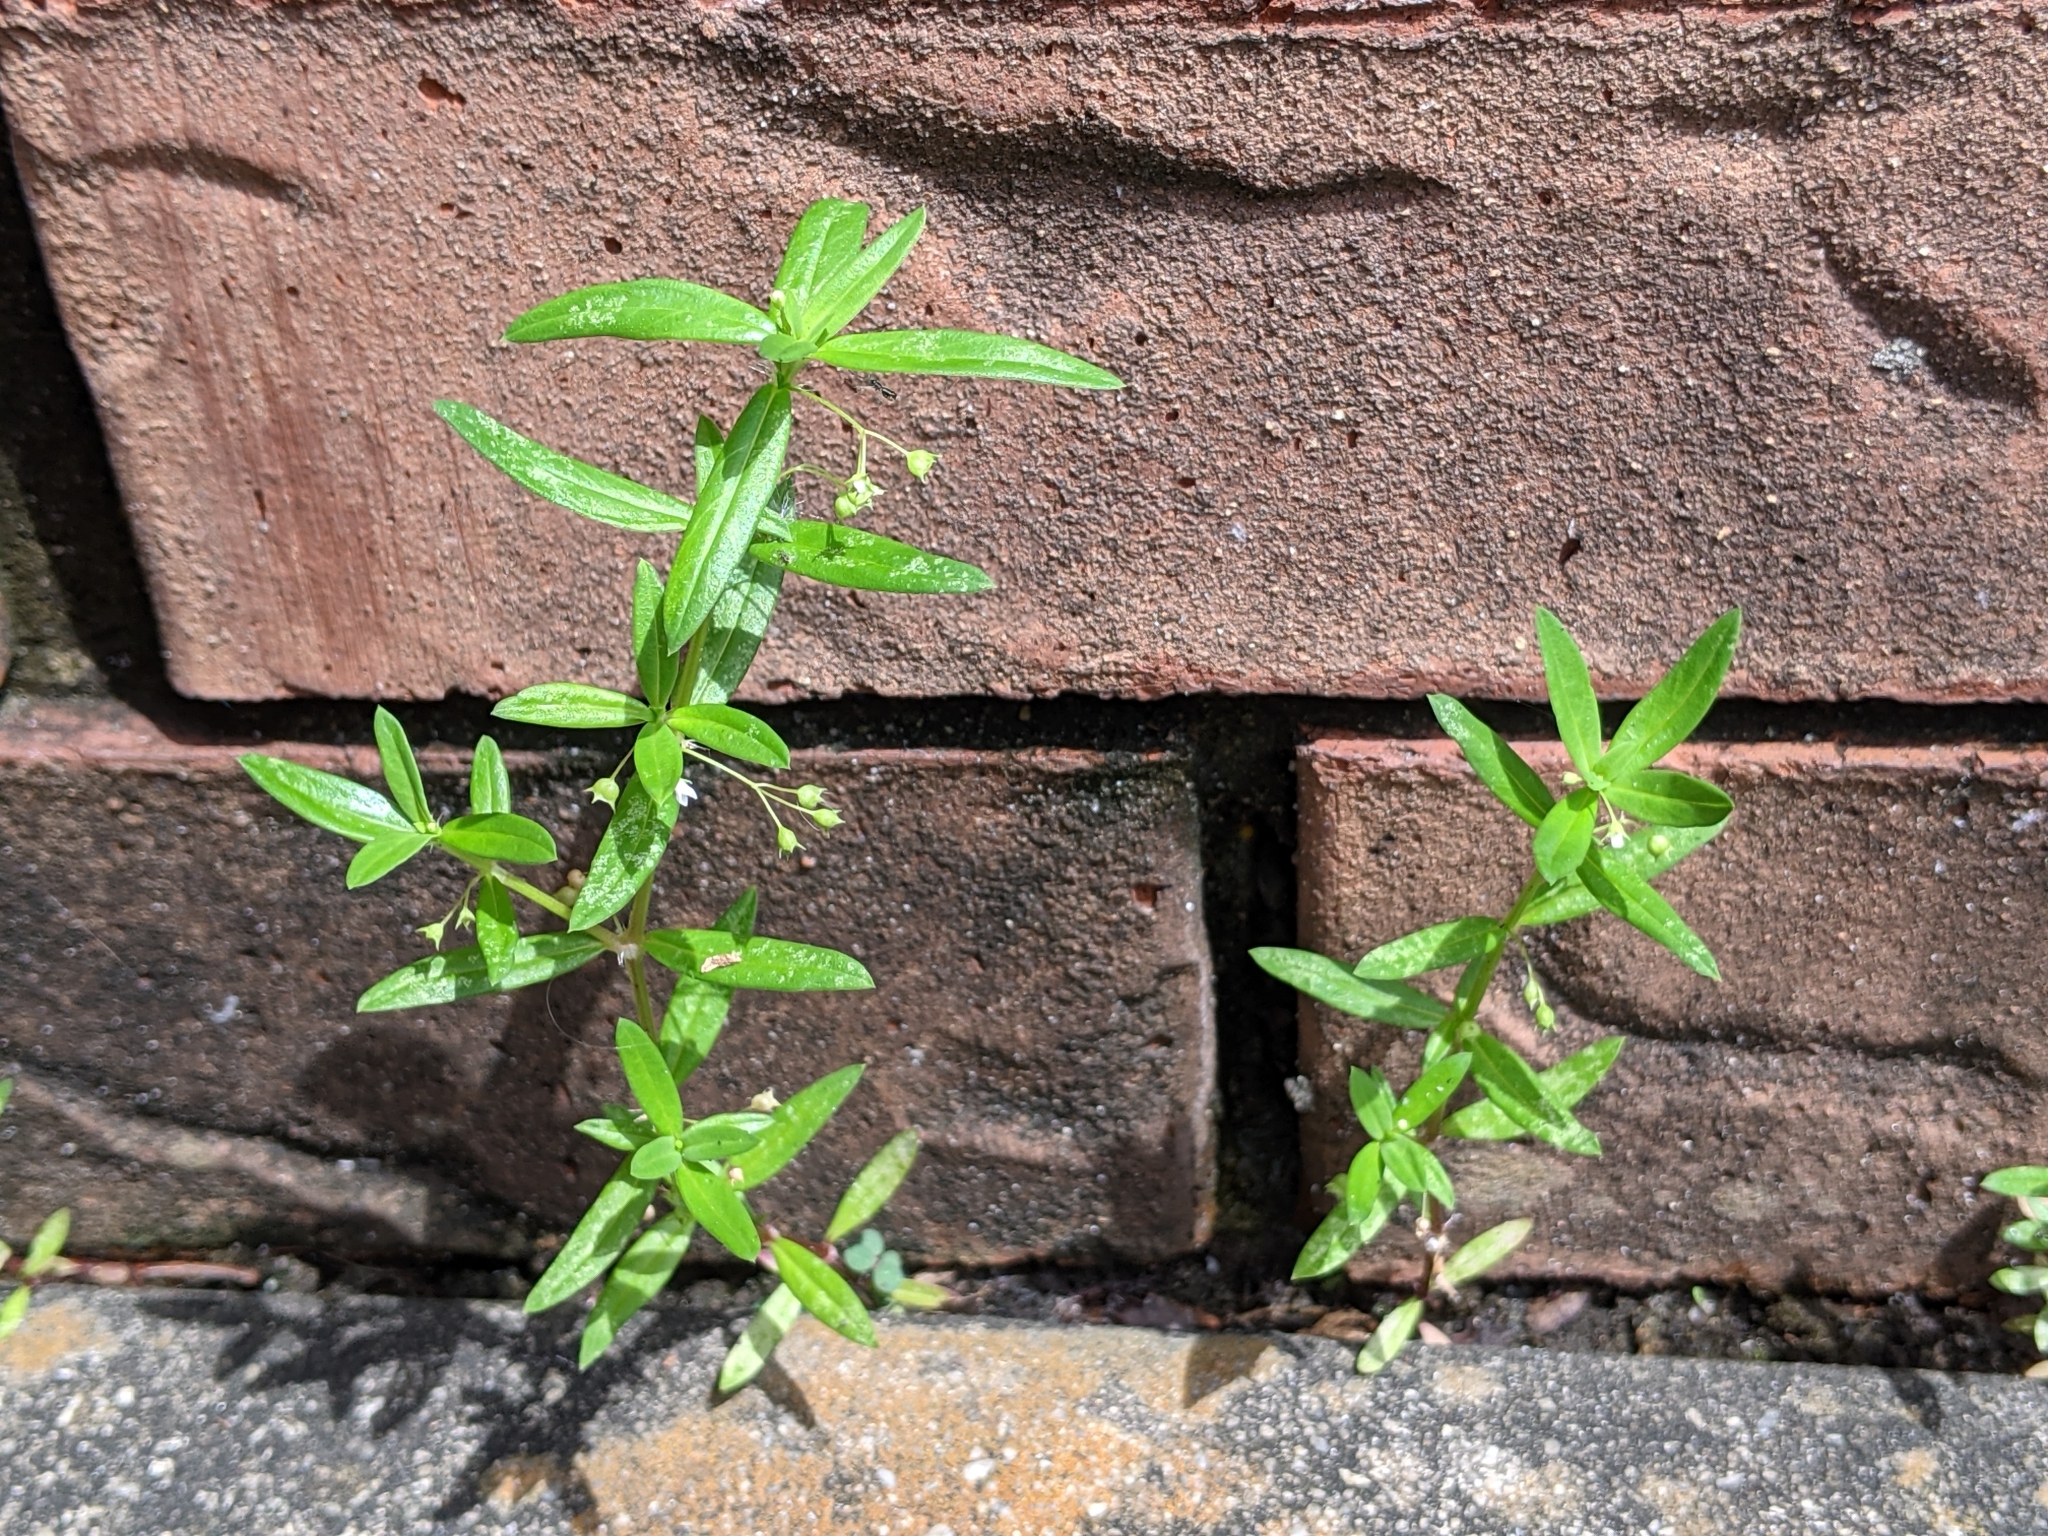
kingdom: Plantae
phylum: Tracheophyta
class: Magnoliopsida
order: Gentianales
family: Rubiaceae
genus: Oldenlandia
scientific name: Oldenlandia corymbosa
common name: Flat-top mille graines
